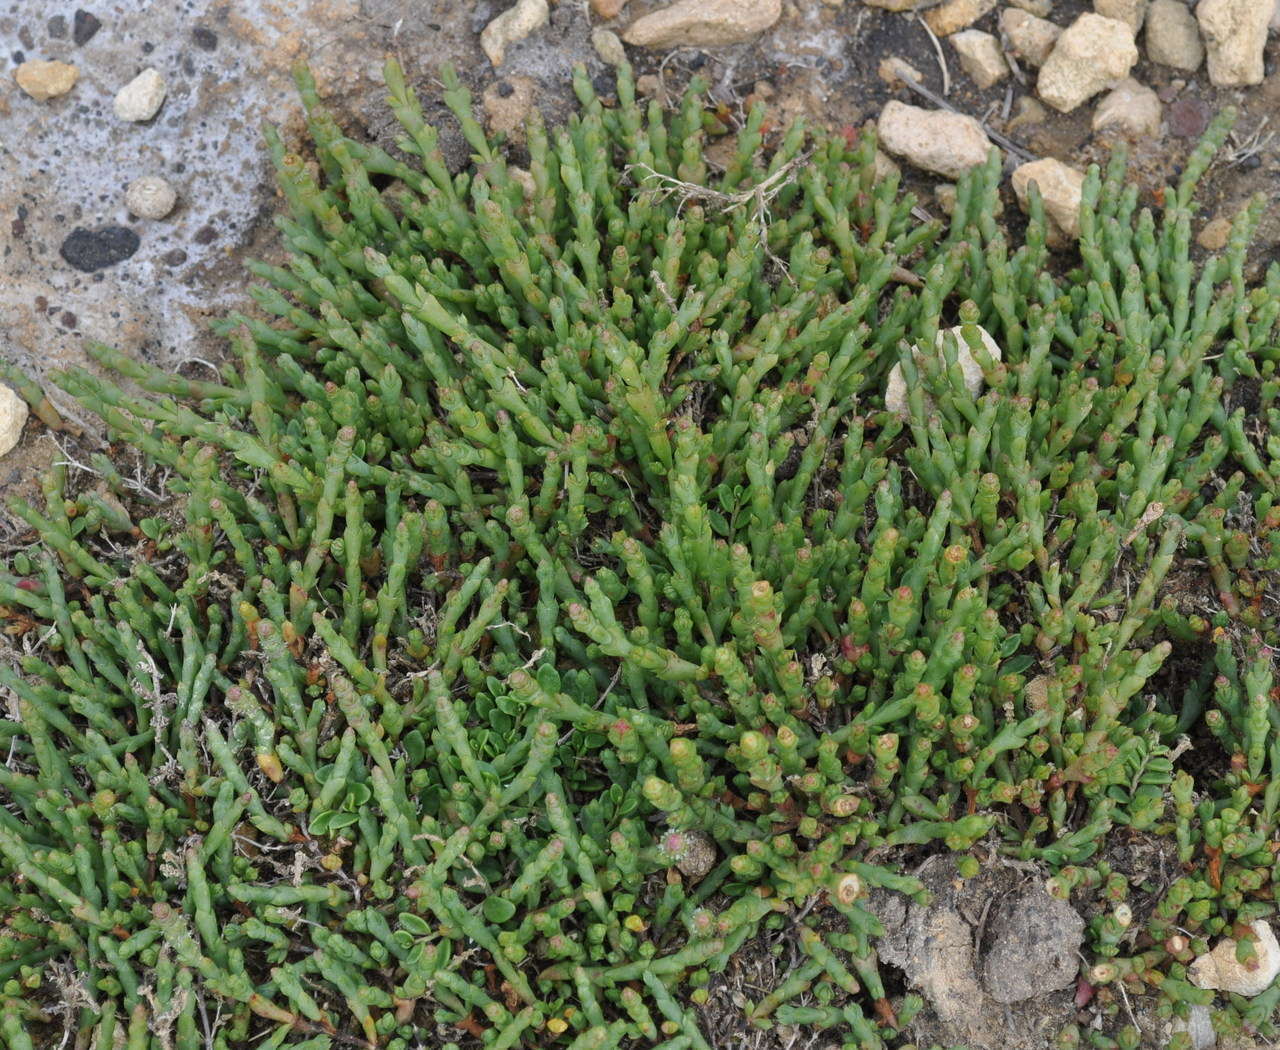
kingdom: Plantae
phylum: Tracheophyta
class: Magnoliopsida
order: Caryophyllales
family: Amaranthaceae
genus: Salicornia
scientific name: Salicornia quinqueflora
